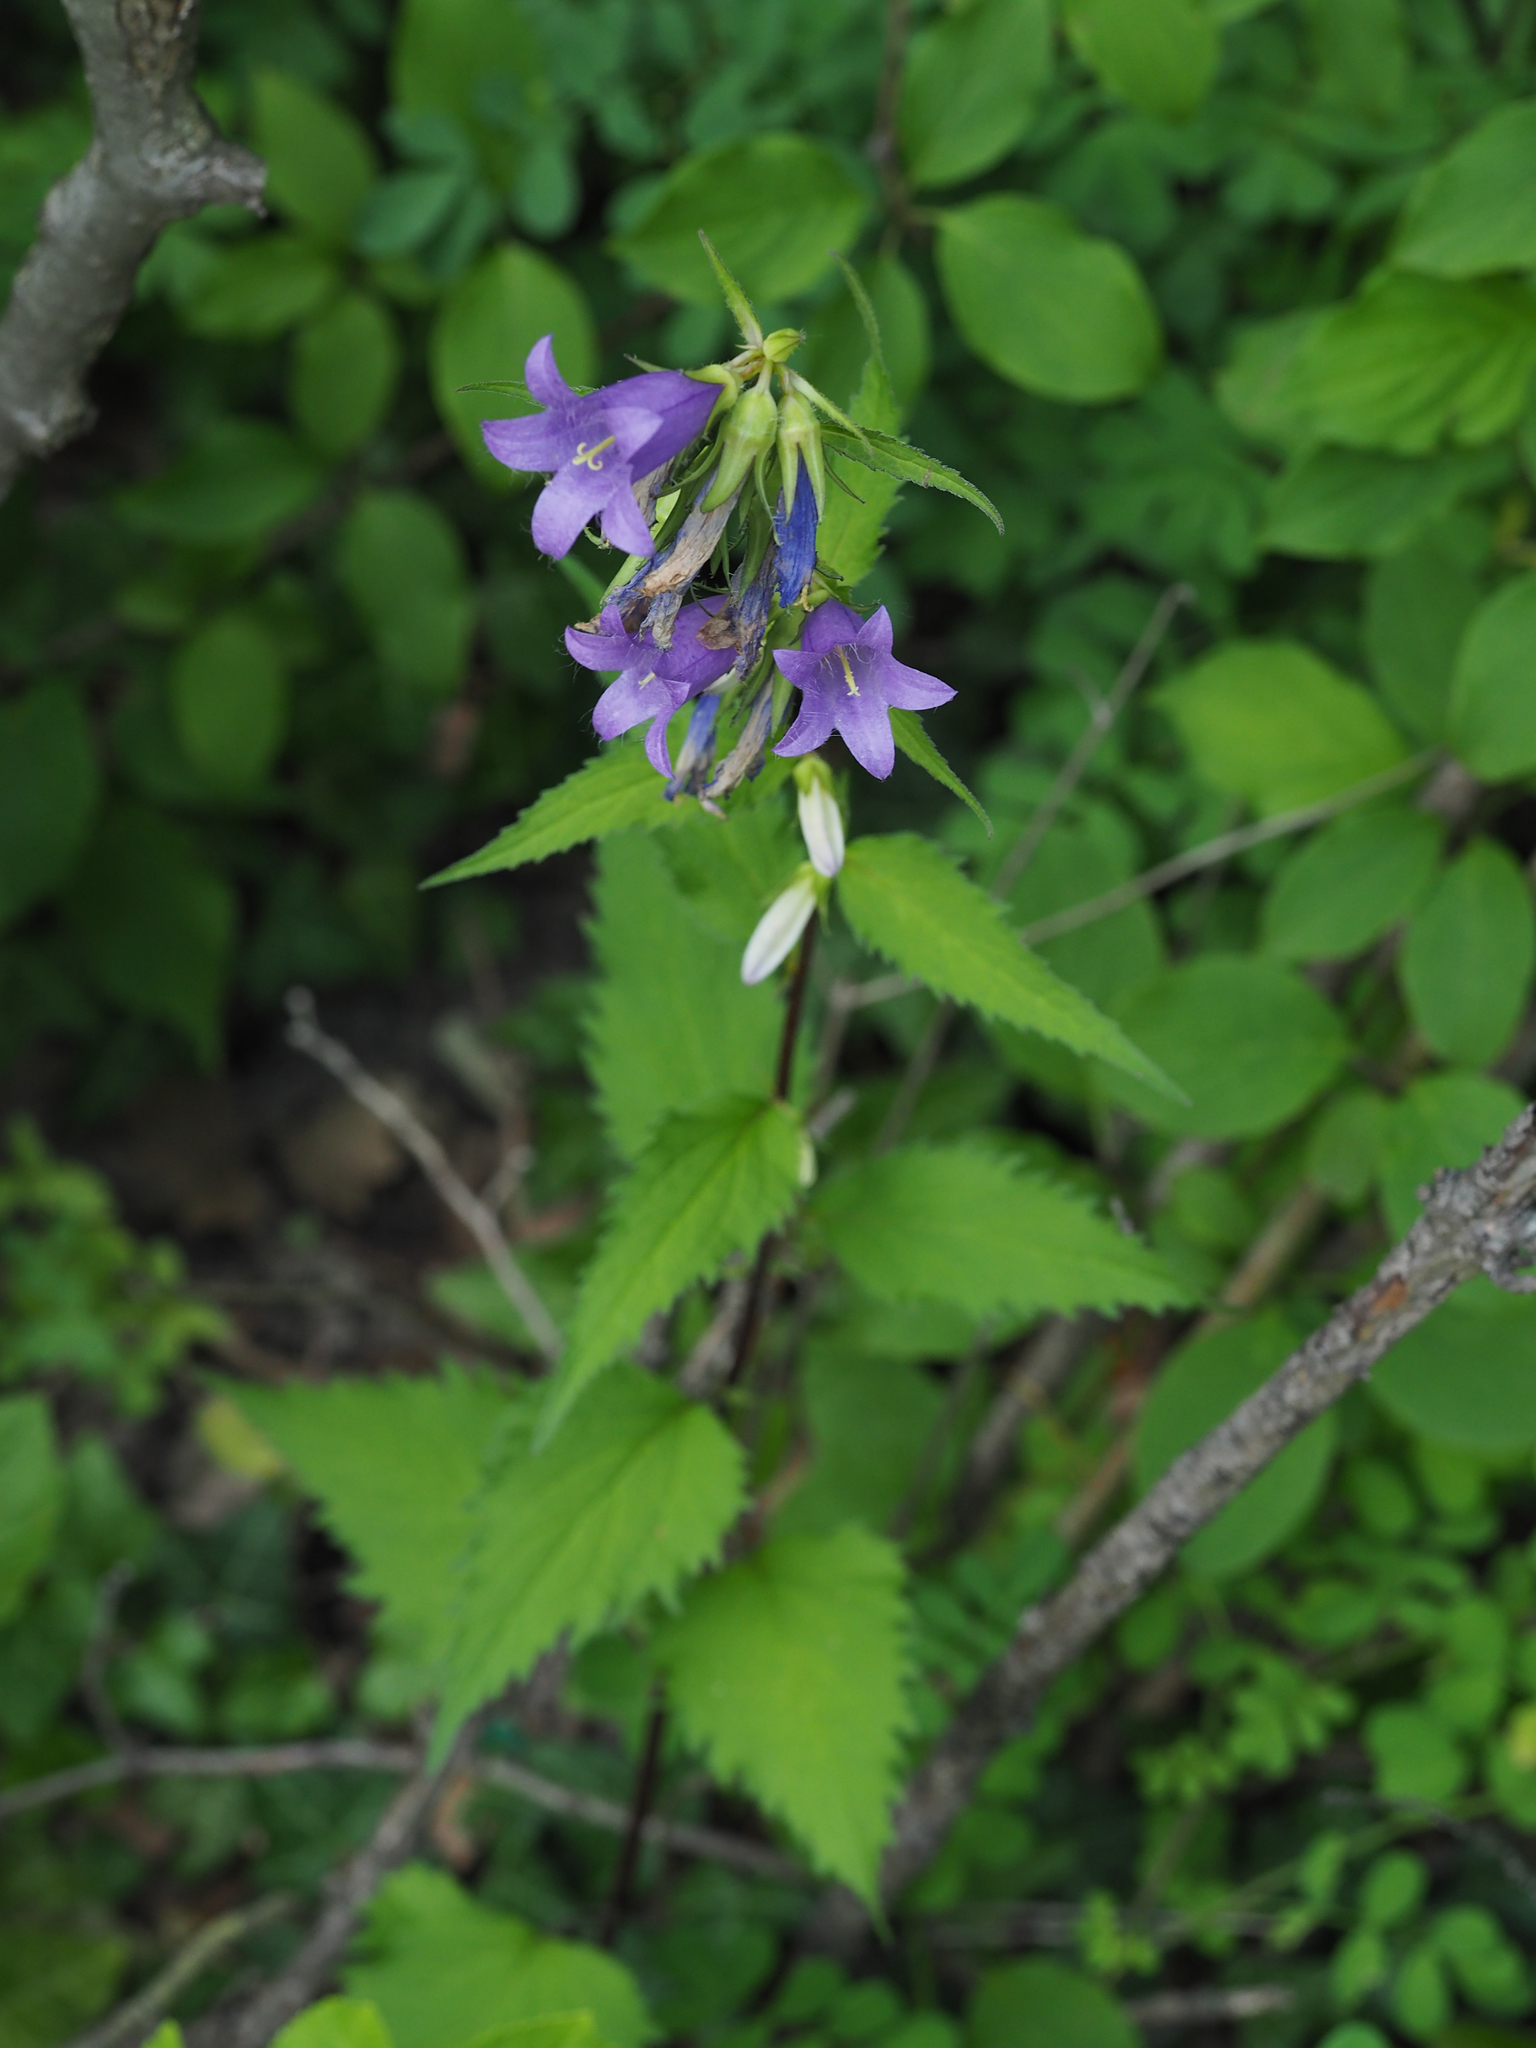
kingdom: Plantae
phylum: Tracheophyta
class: Magnoliopsida
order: Asterales
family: Campanulaceae
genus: Campanula
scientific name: Campanula trachelium
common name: Nettle-leaved bellflower
